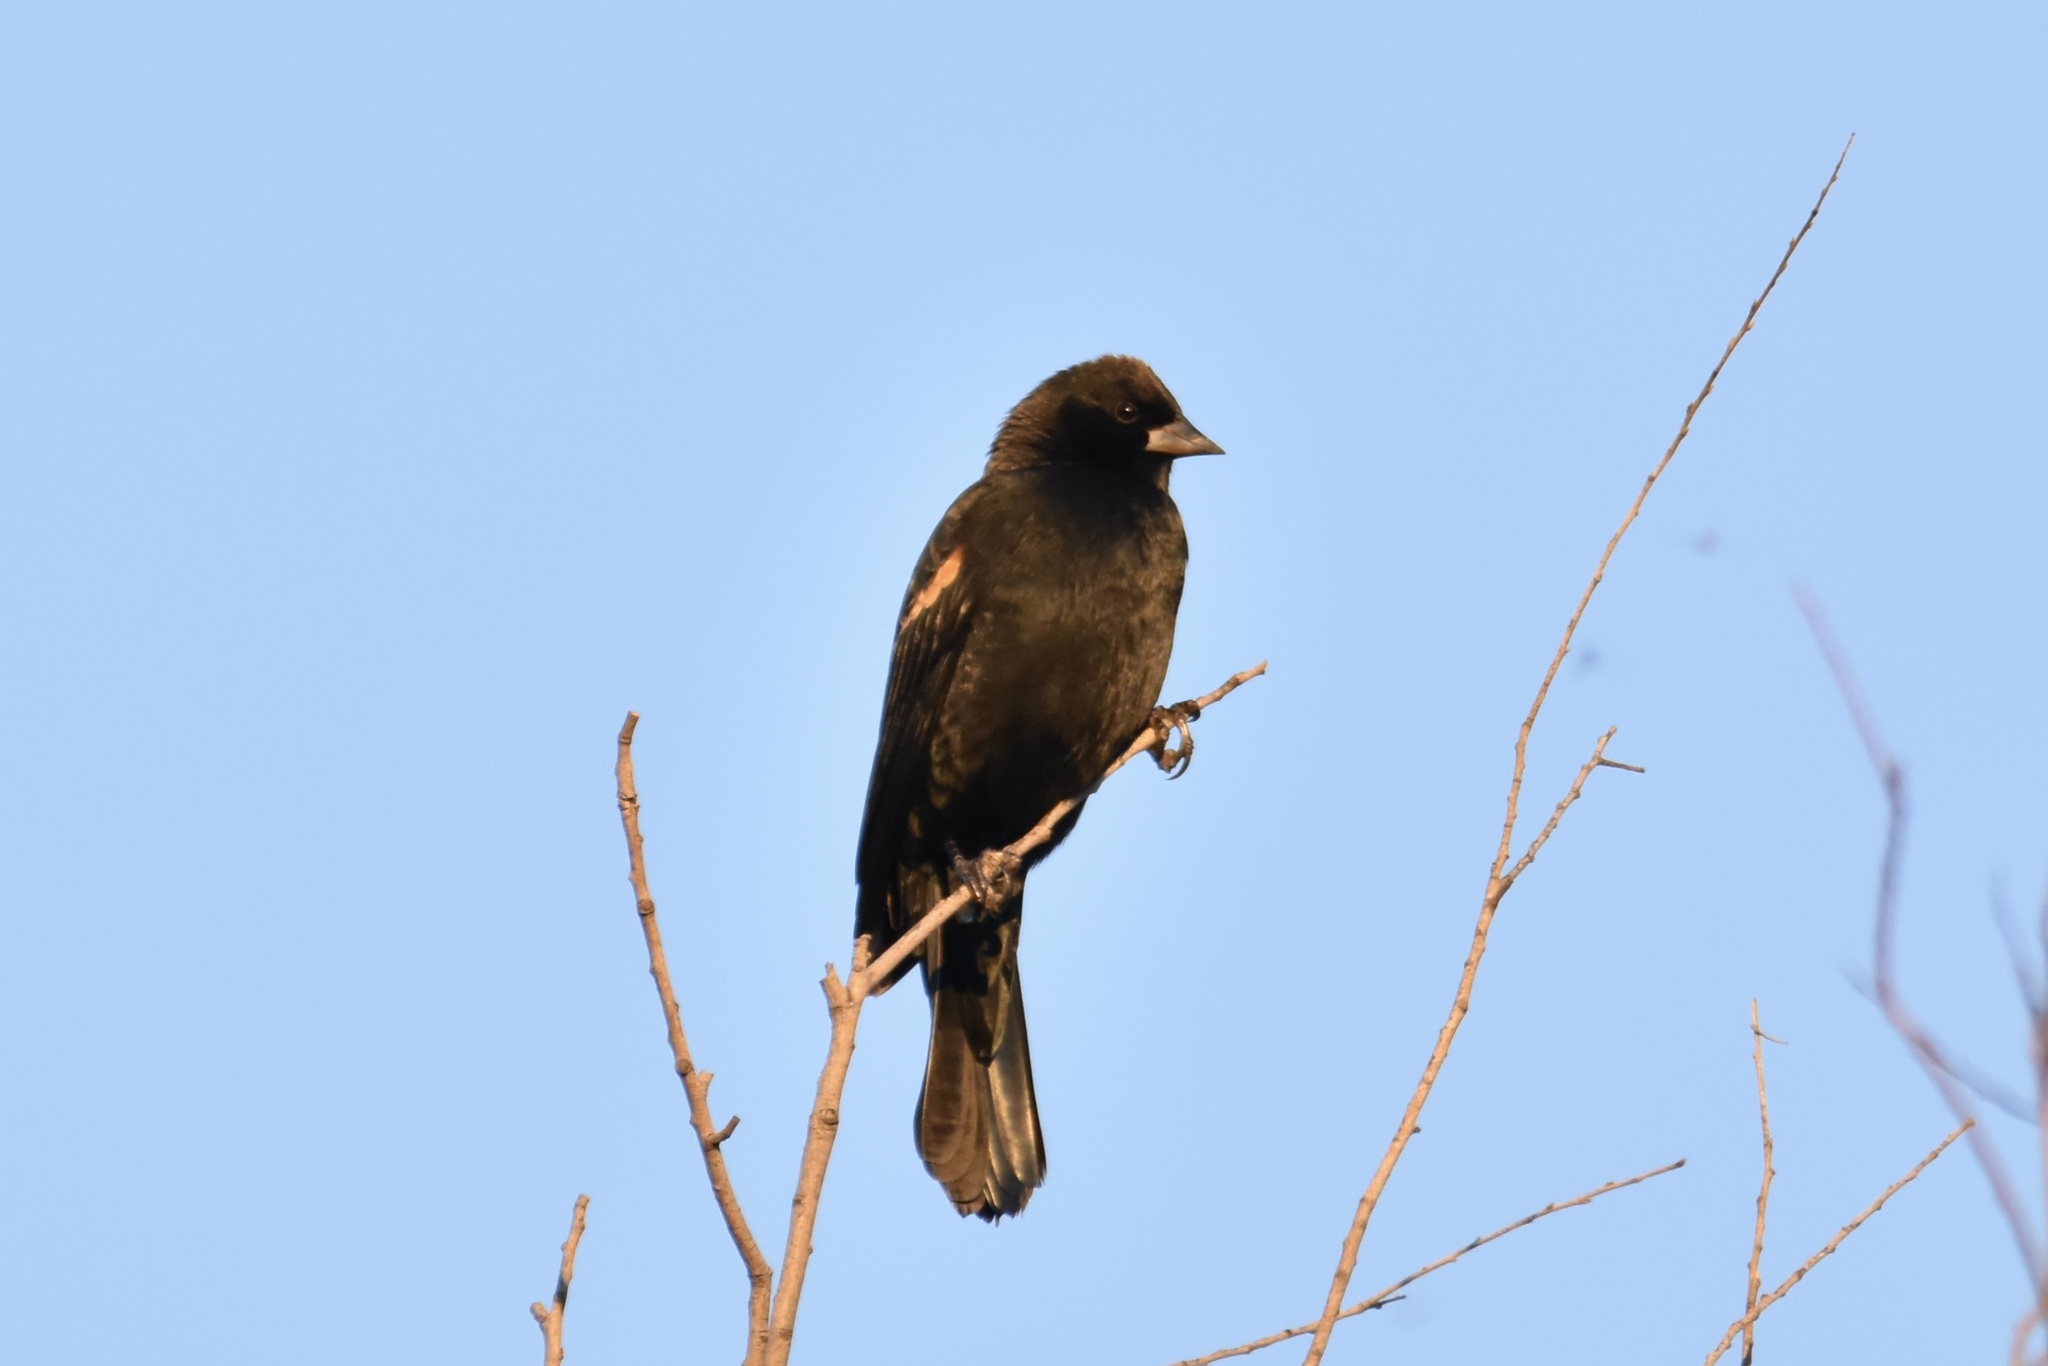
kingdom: Animalia
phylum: Chordata
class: Aves
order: Passeriformes
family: Icteridae
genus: Agelaius
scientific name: Agelaius phoeniceus
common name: Red-winged blackbird
